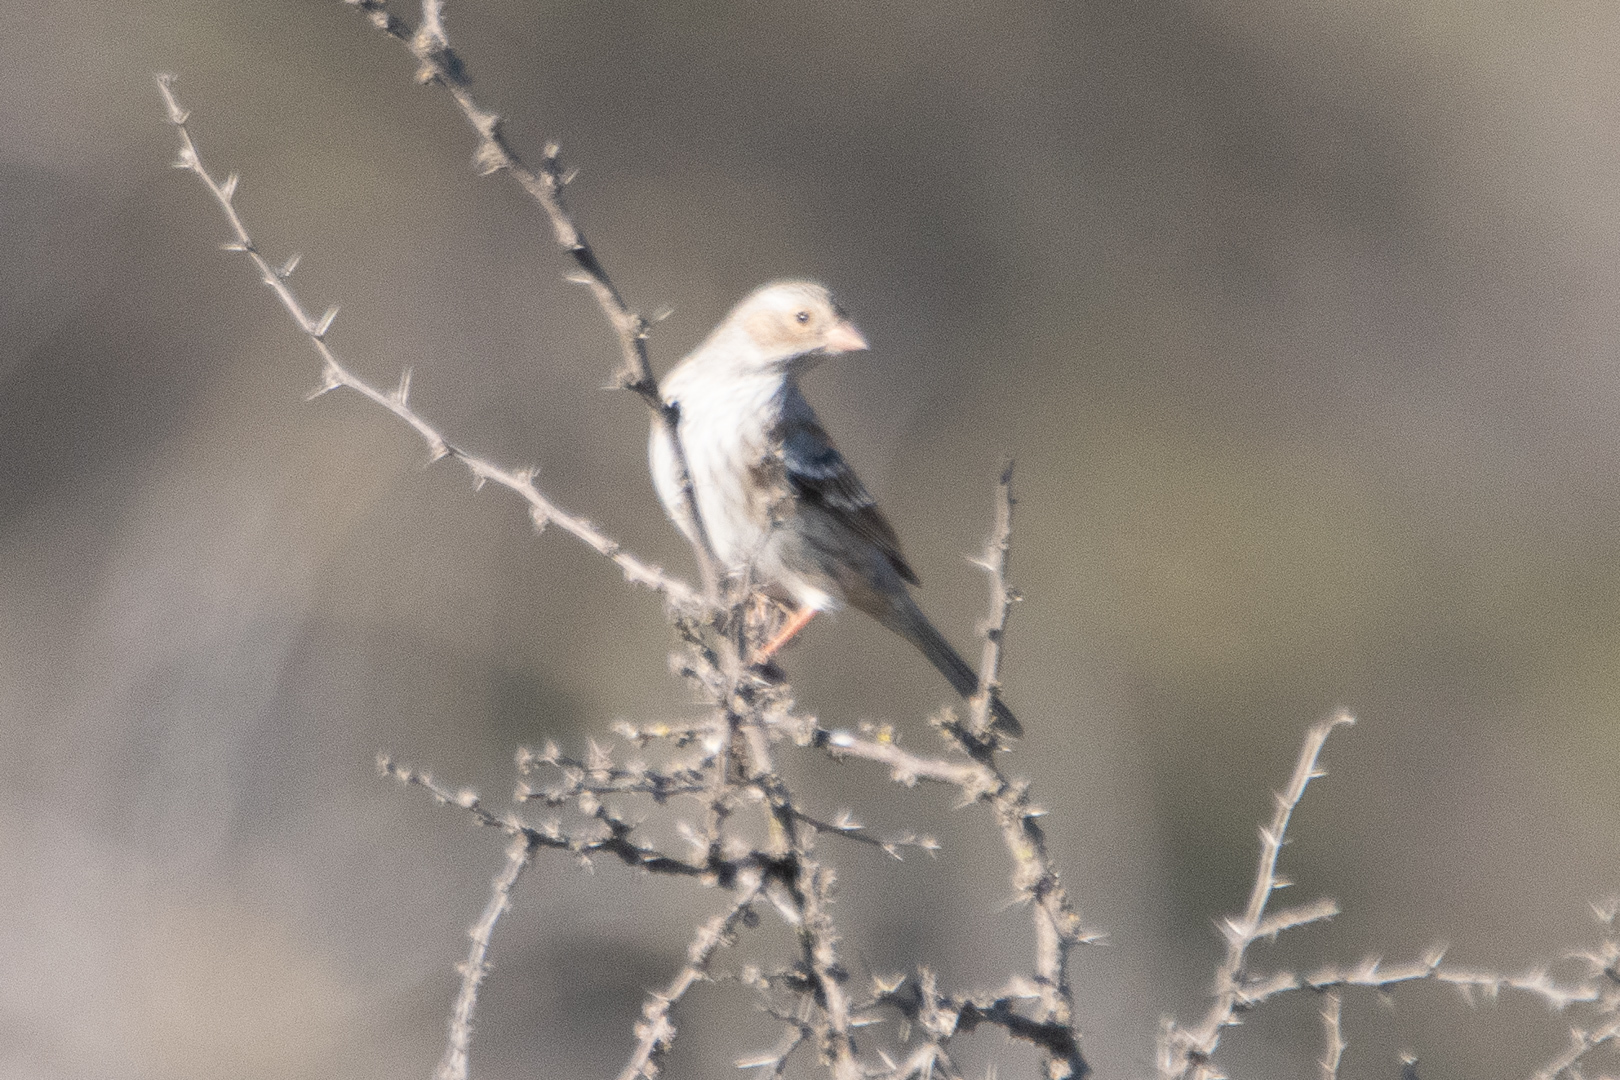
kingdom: Animalia
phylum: Chordata
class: Aves
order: Passeriformes
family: Thraupidae
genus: Rhopospina
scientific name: Rhopospina fruticeti
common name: Mourning sierra finch
